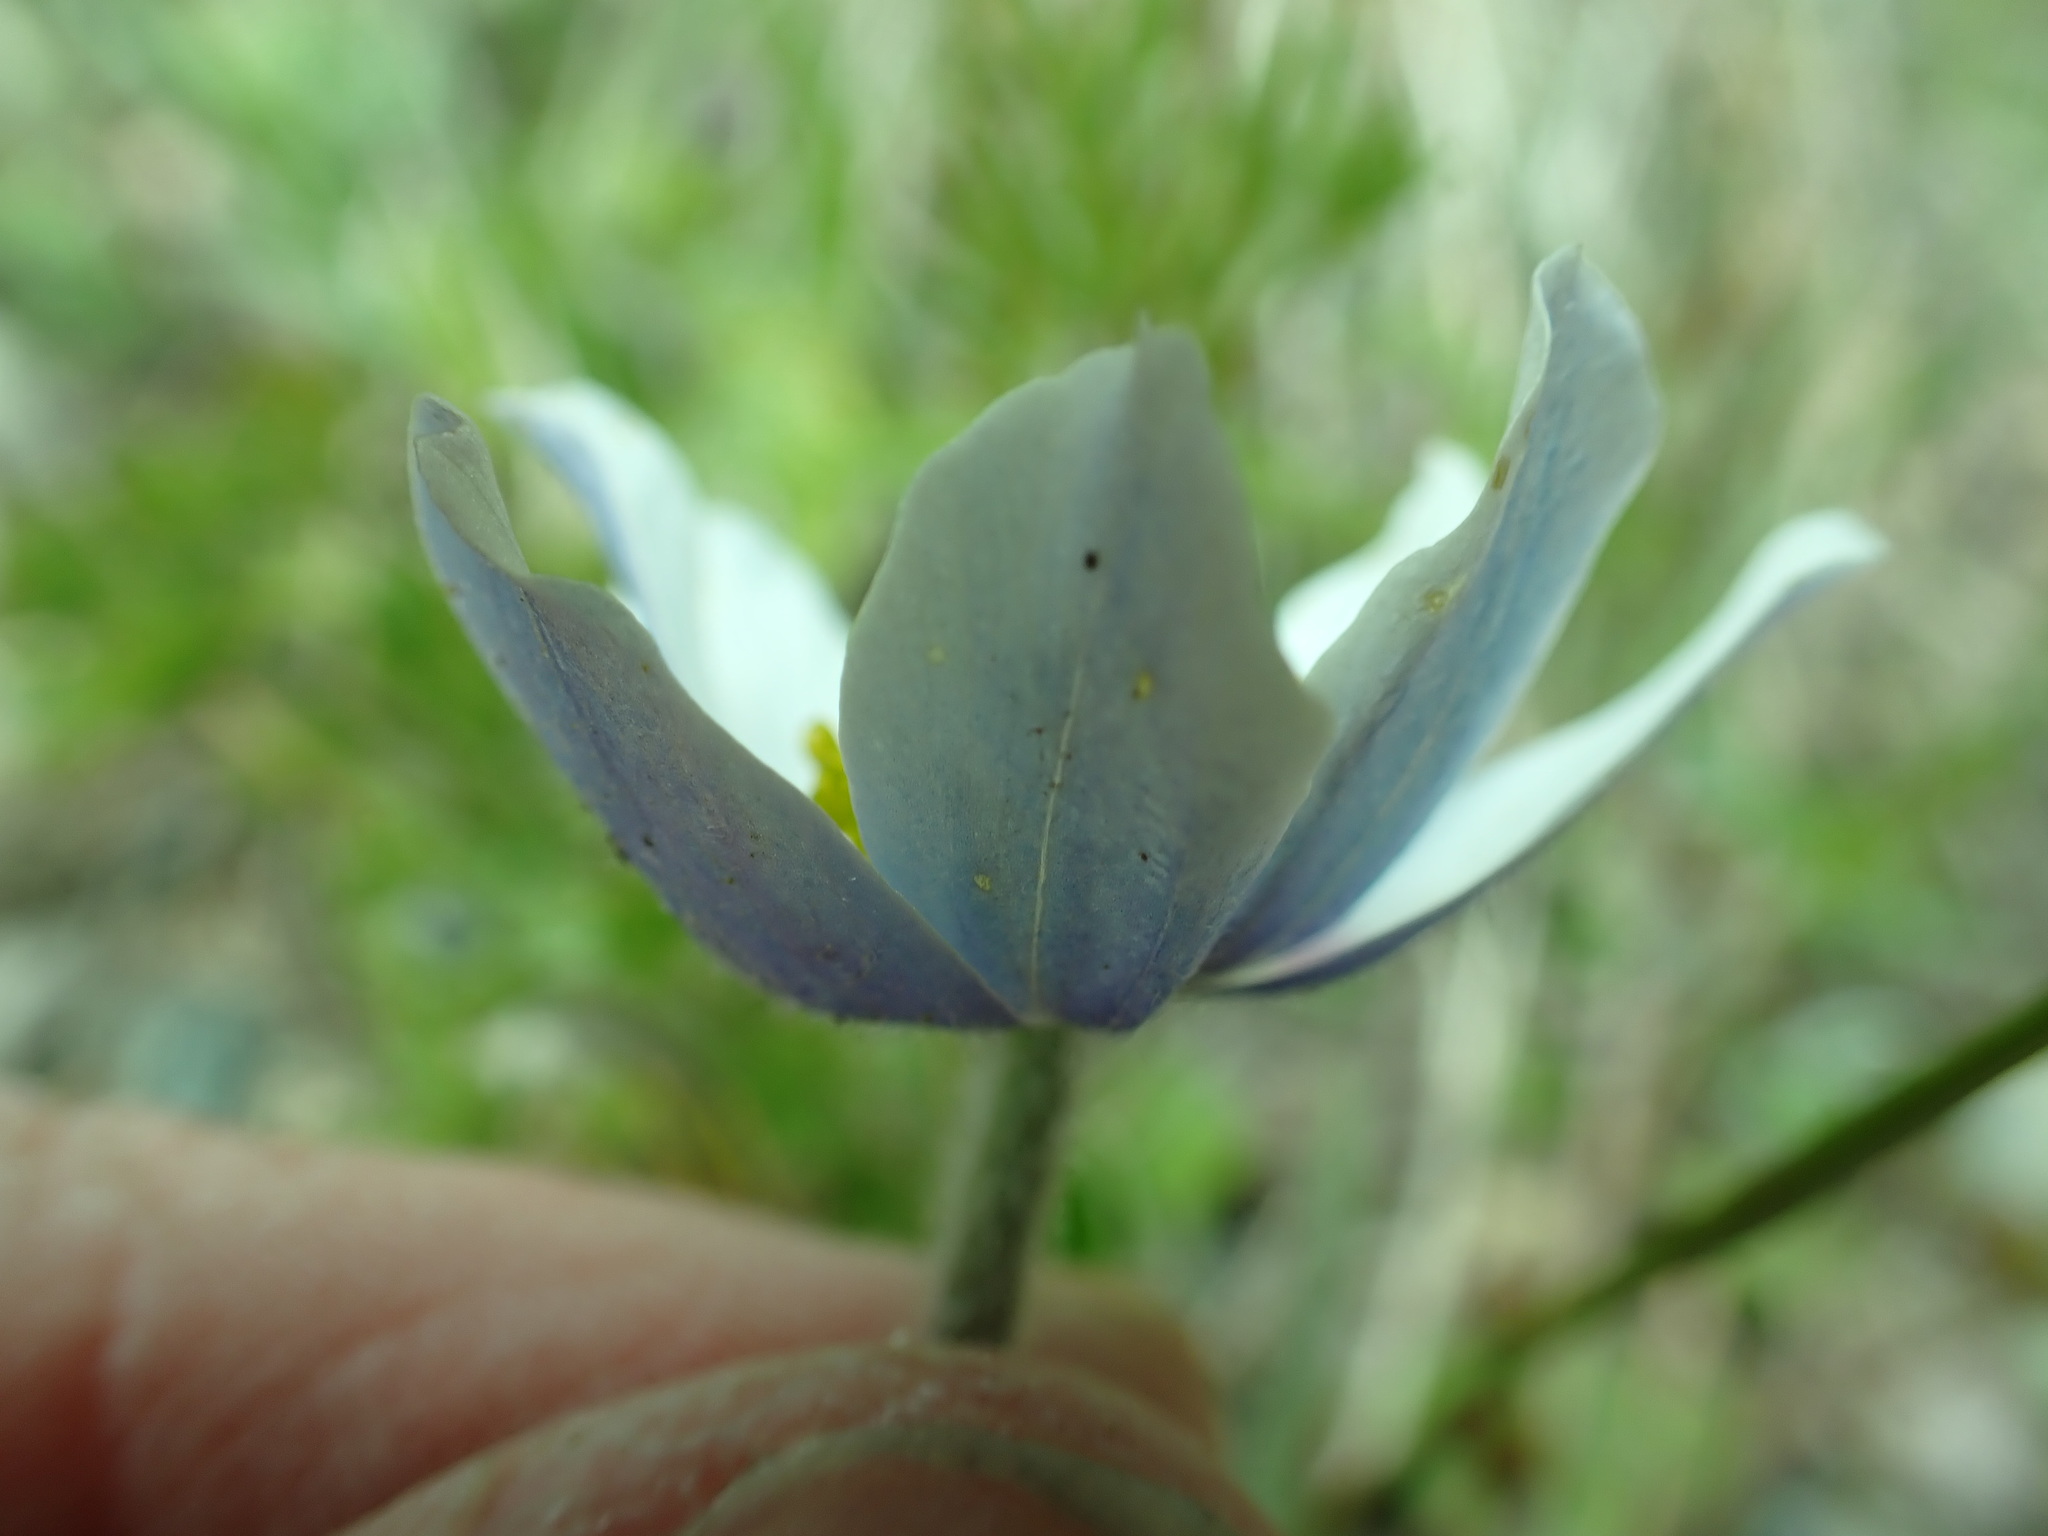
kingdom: Plantae
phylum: Tracheophyta
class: Magnoliopsida
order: Ranunculales
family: Ranunculaceae
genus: Anemone
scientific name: Anemone drummondii
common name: Drummond's anemone
